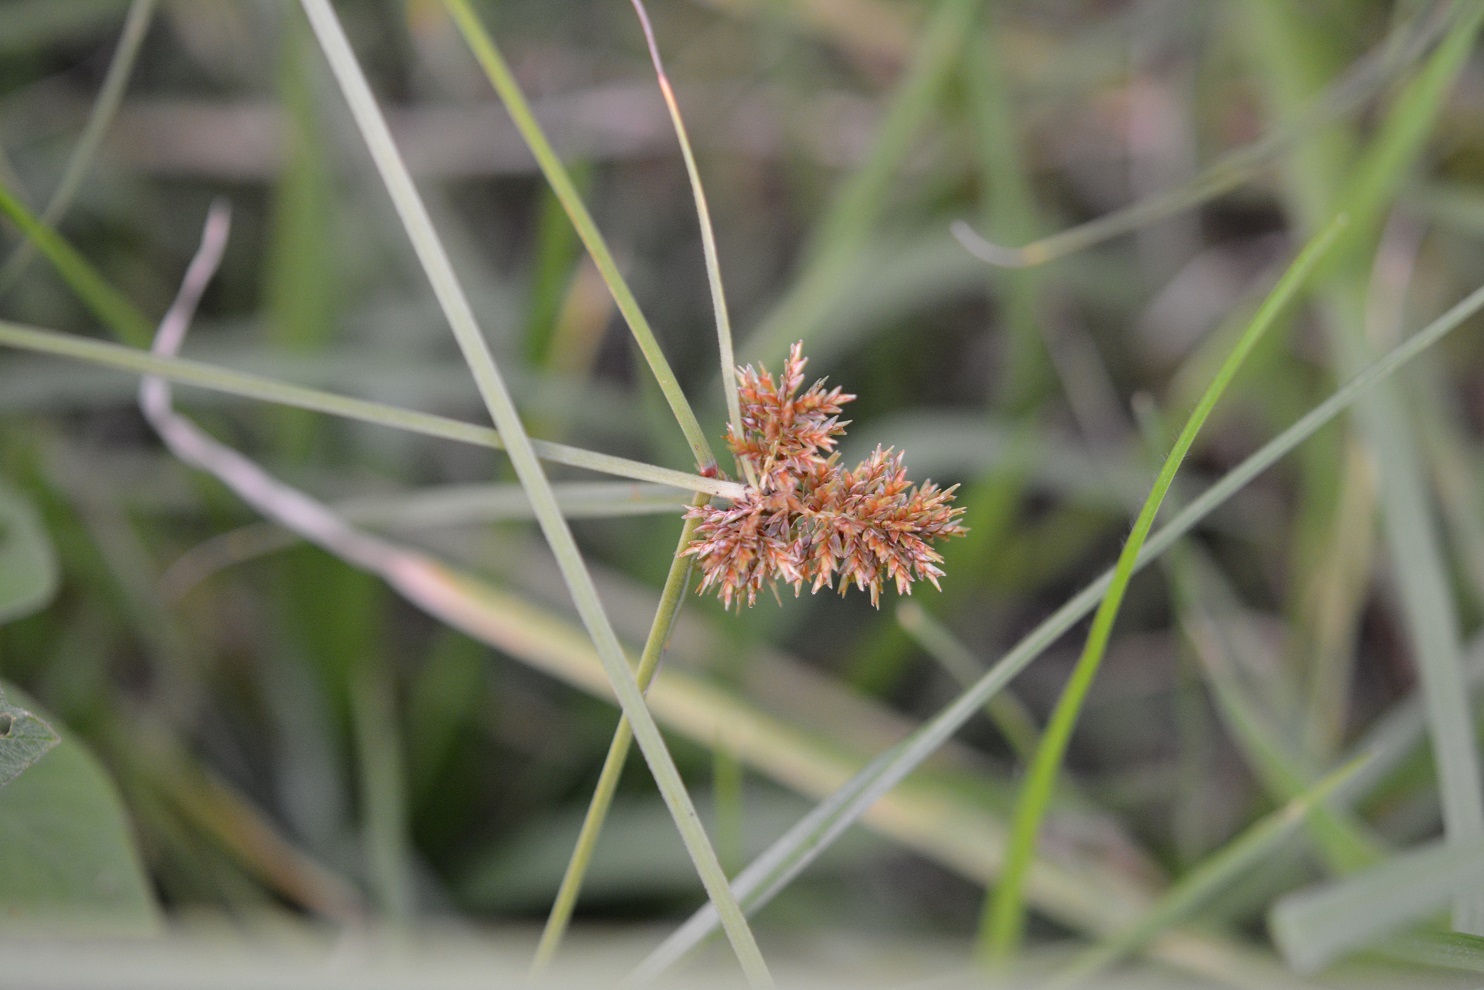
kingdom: Plantae
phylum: Tracheophyta
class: Liliopsida
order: Poales
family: Cyperaceae
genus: Cyperus
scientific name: Cyperus manimae
